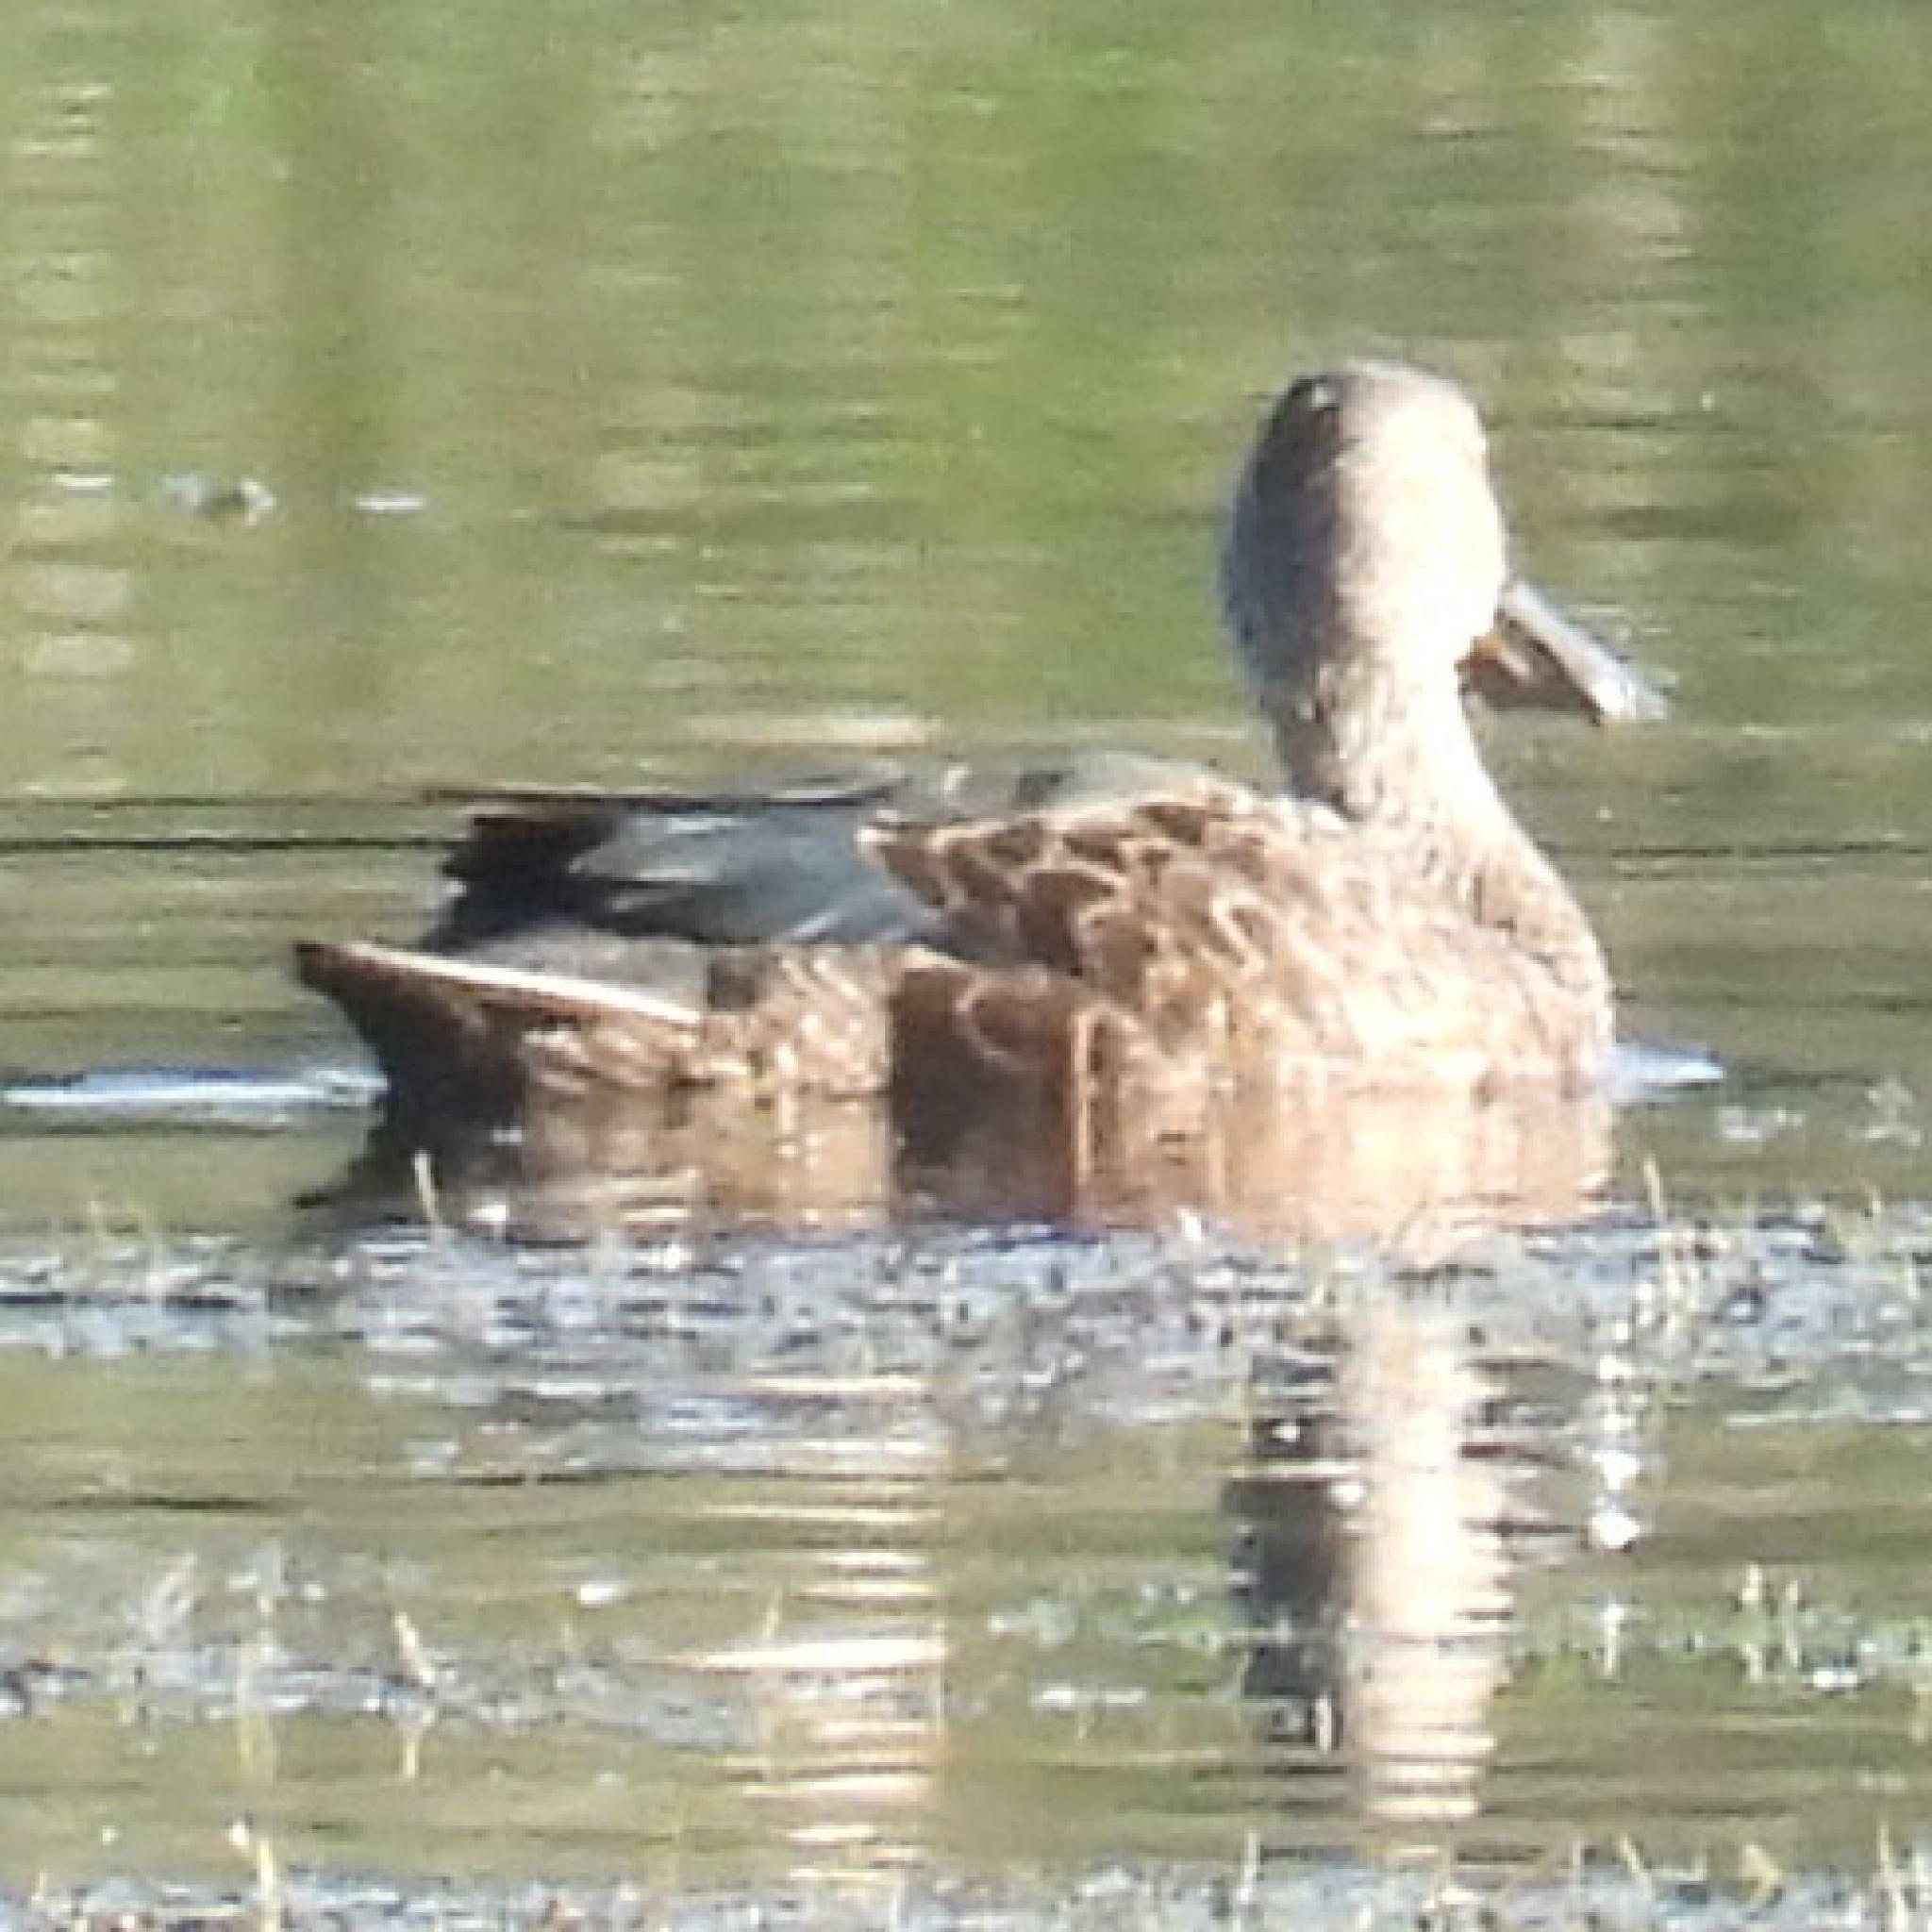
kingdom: Animalia
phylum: Chordata
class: Aves
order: Anseriformes
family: Anatidae
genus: Spatula
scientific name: Spatula smithii
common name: Cape shoveler
